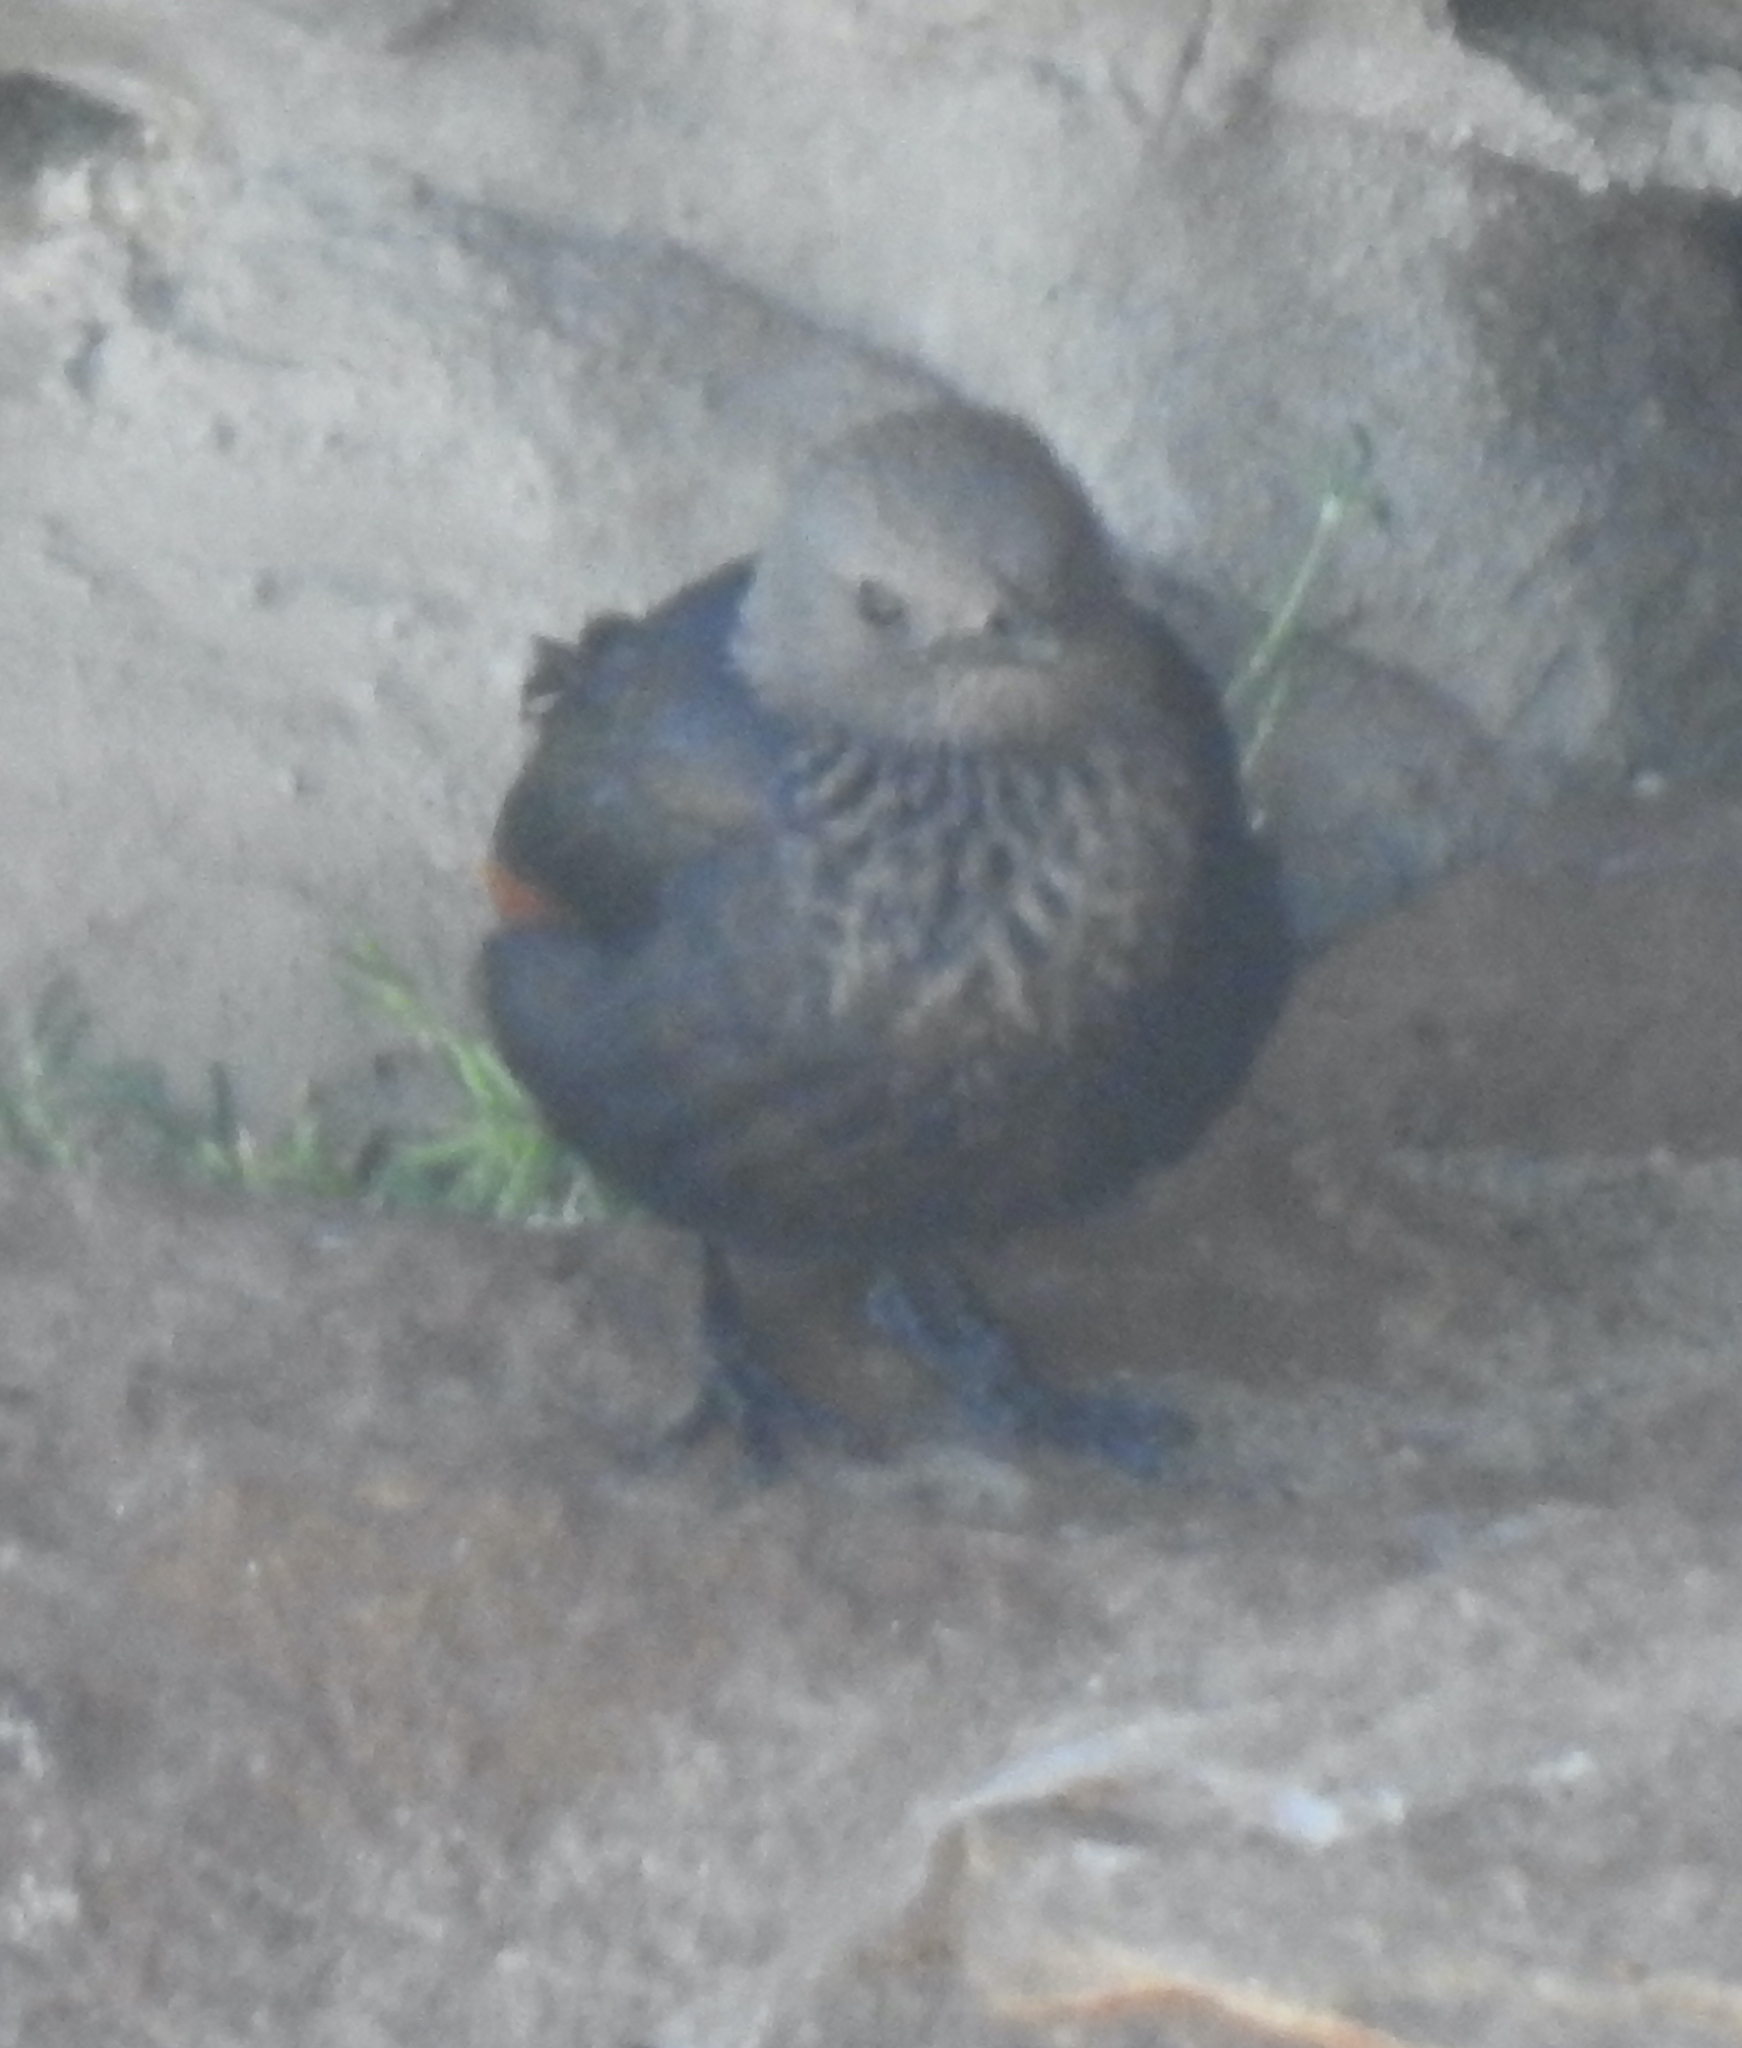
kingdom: Animalia
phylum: Chordata
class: Aves
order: Passeriformes
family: Sturnidae
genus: Onychognathus
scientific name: Onychognathus morio
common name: Red-winged starling
